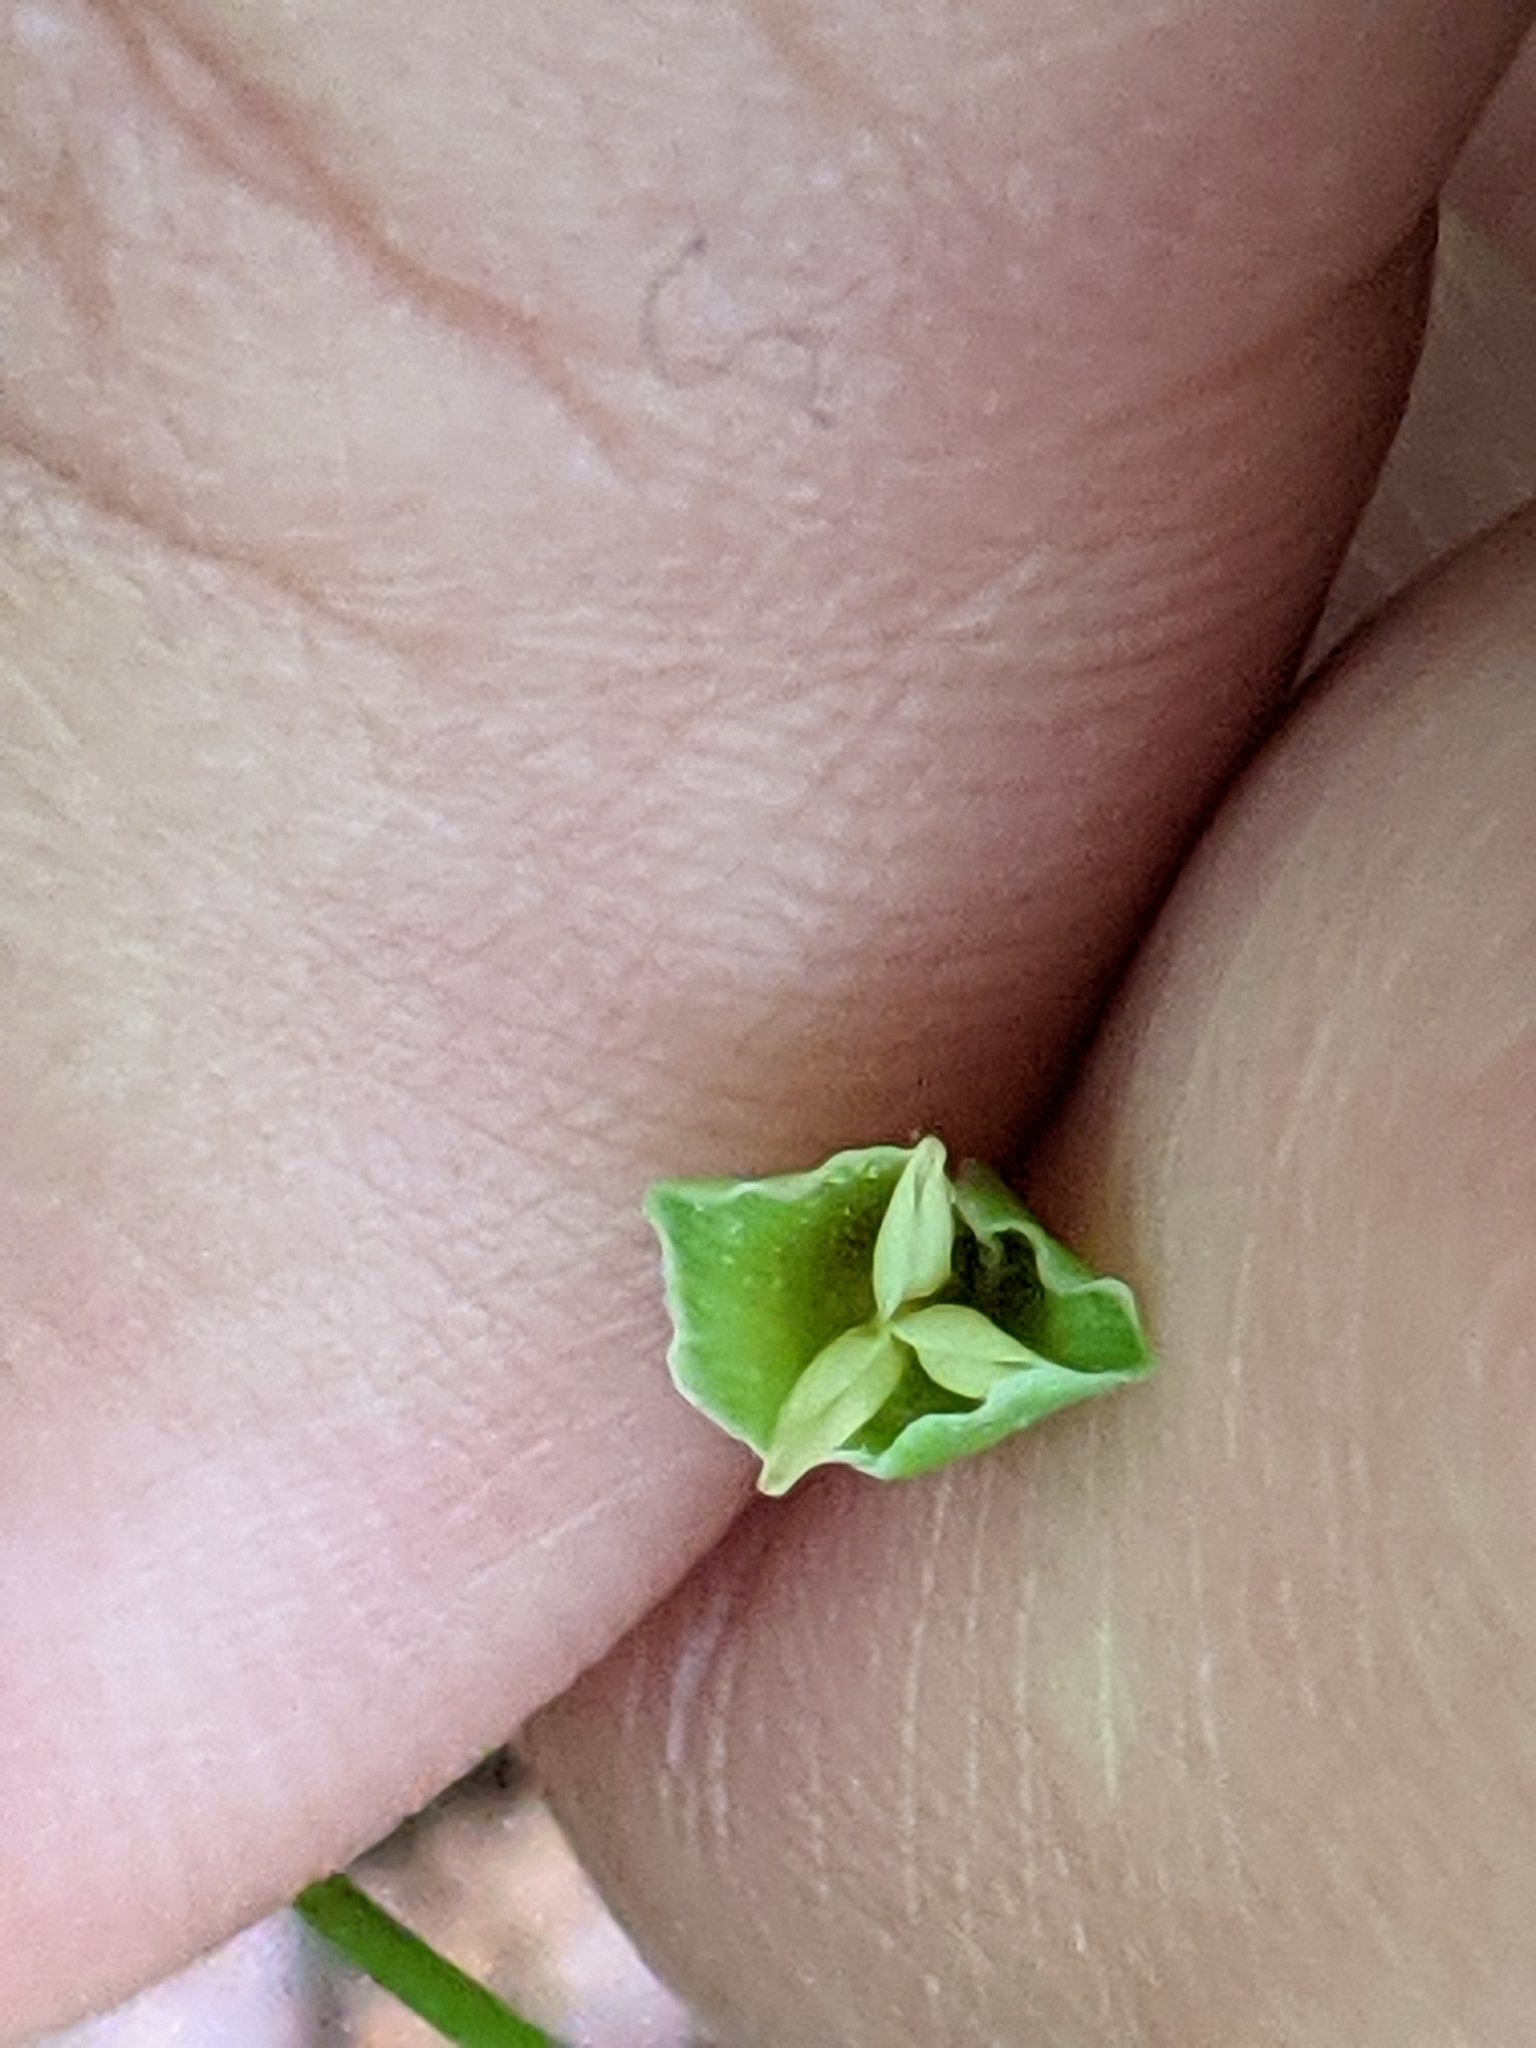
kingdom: Plantae
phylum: Tracheophyta
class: Magnoliopsida
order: Caryophyllales
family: Montiaceae
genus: Claytonia
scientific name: Claytonia virginica
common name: Virginia springbeauty
